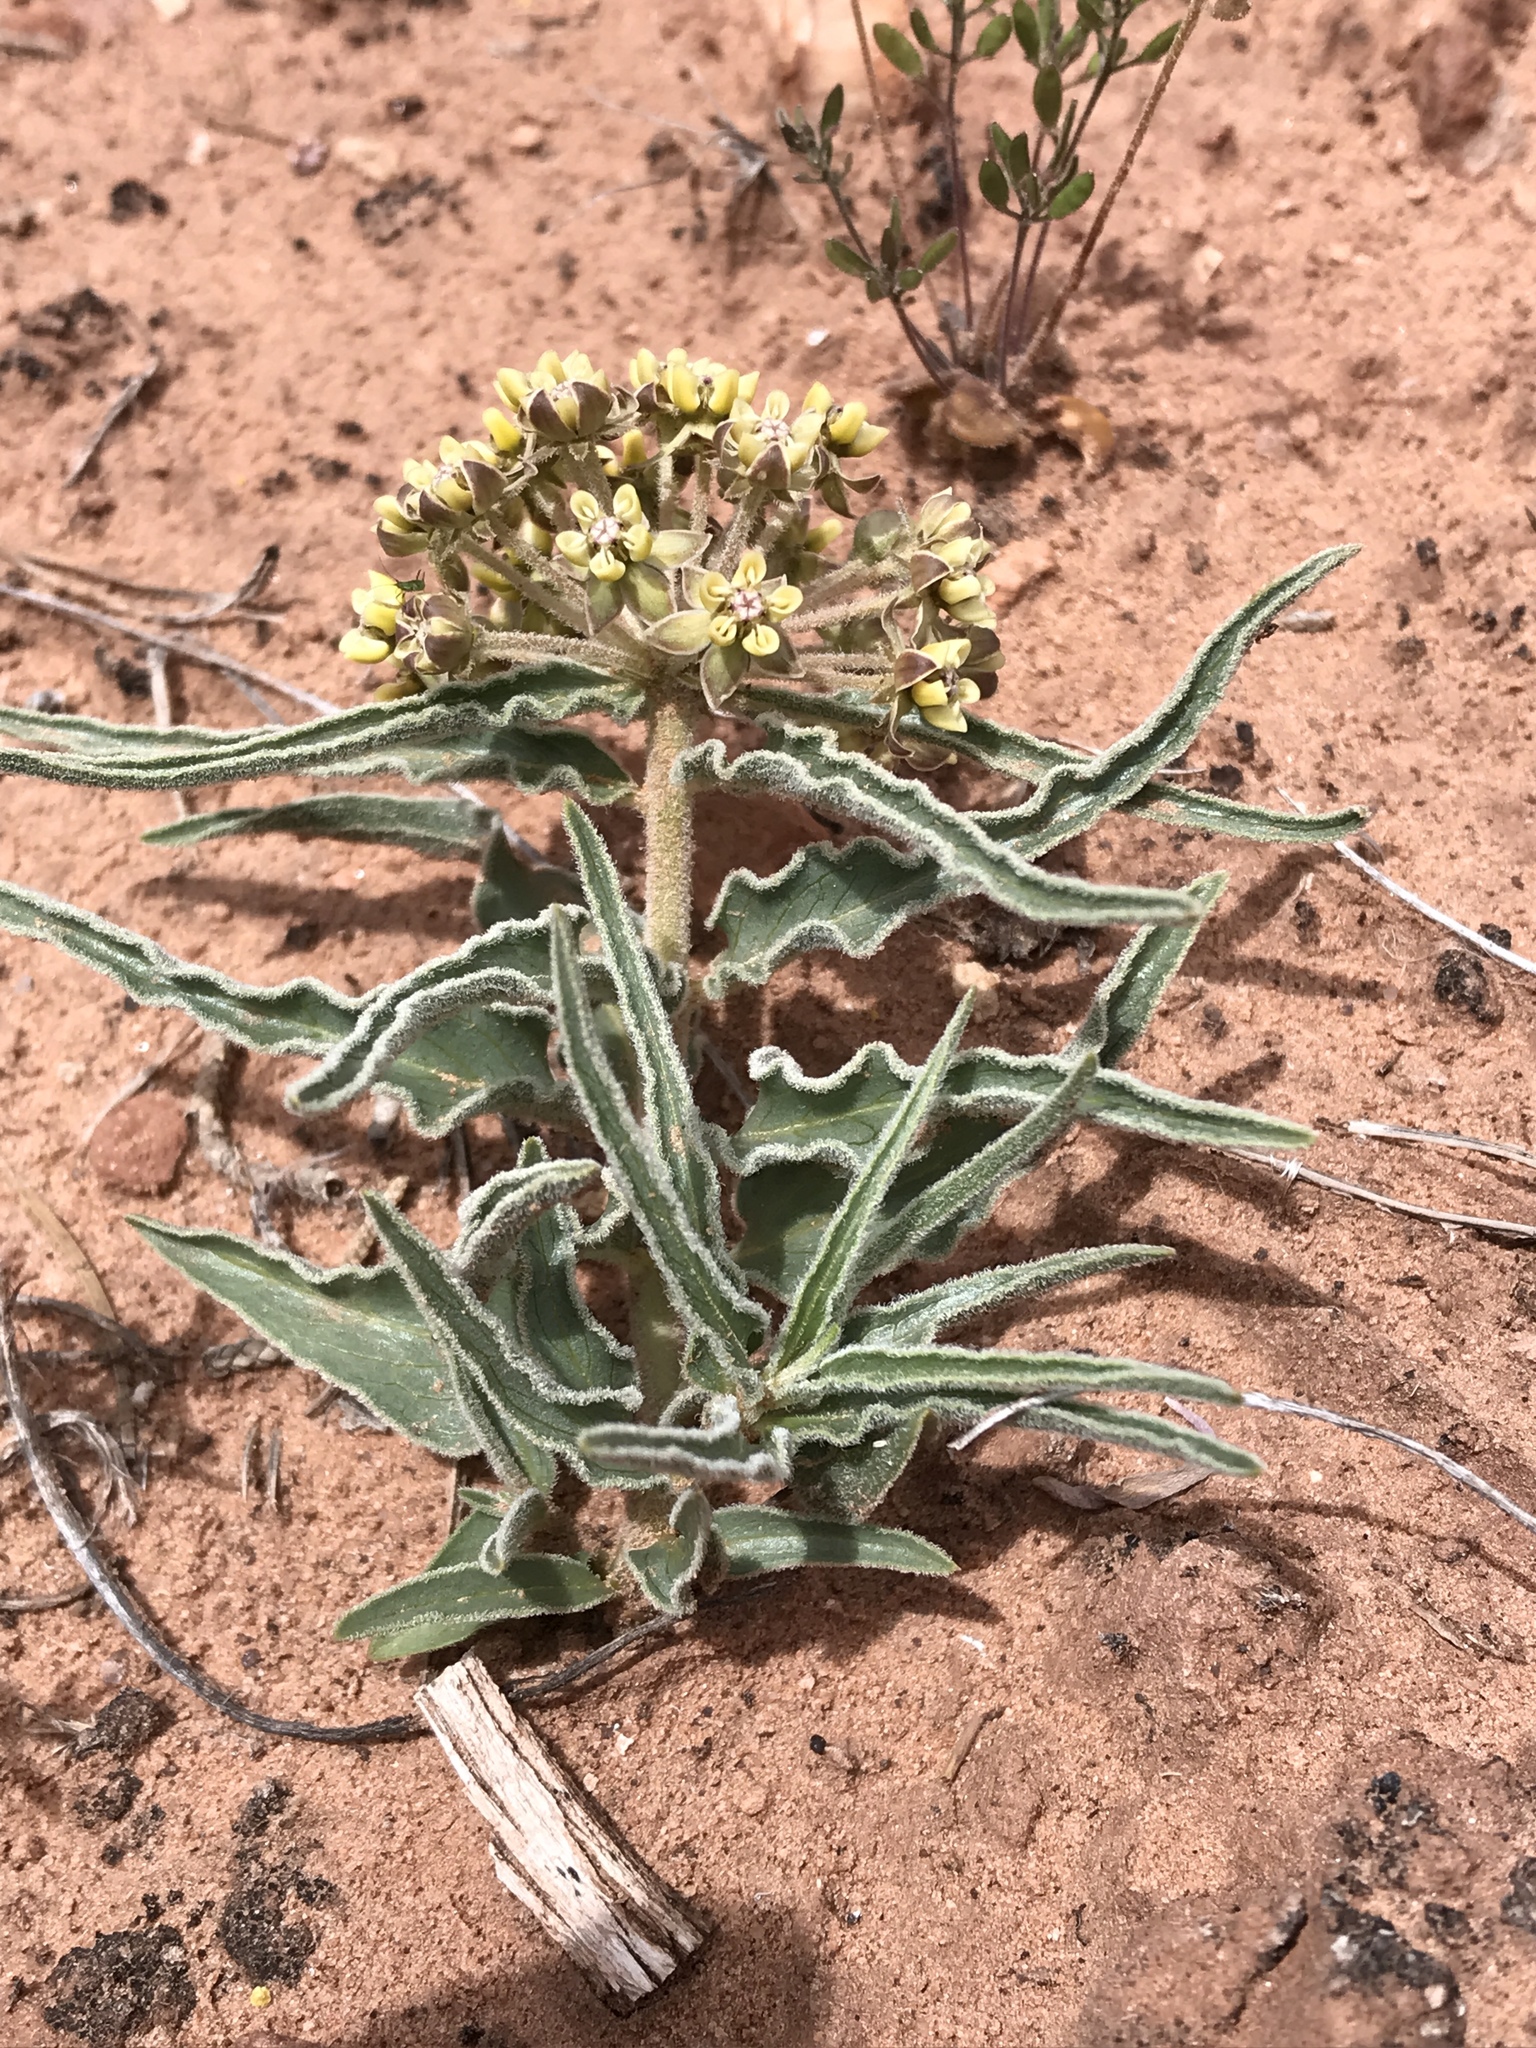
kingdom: Plantae
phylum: Tracheophyta
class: Magnoliopsida
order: Gentianales
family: Apocynaceae
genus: Asclepias
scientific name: Asclepias involucrata
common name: Dwarf milkweed
